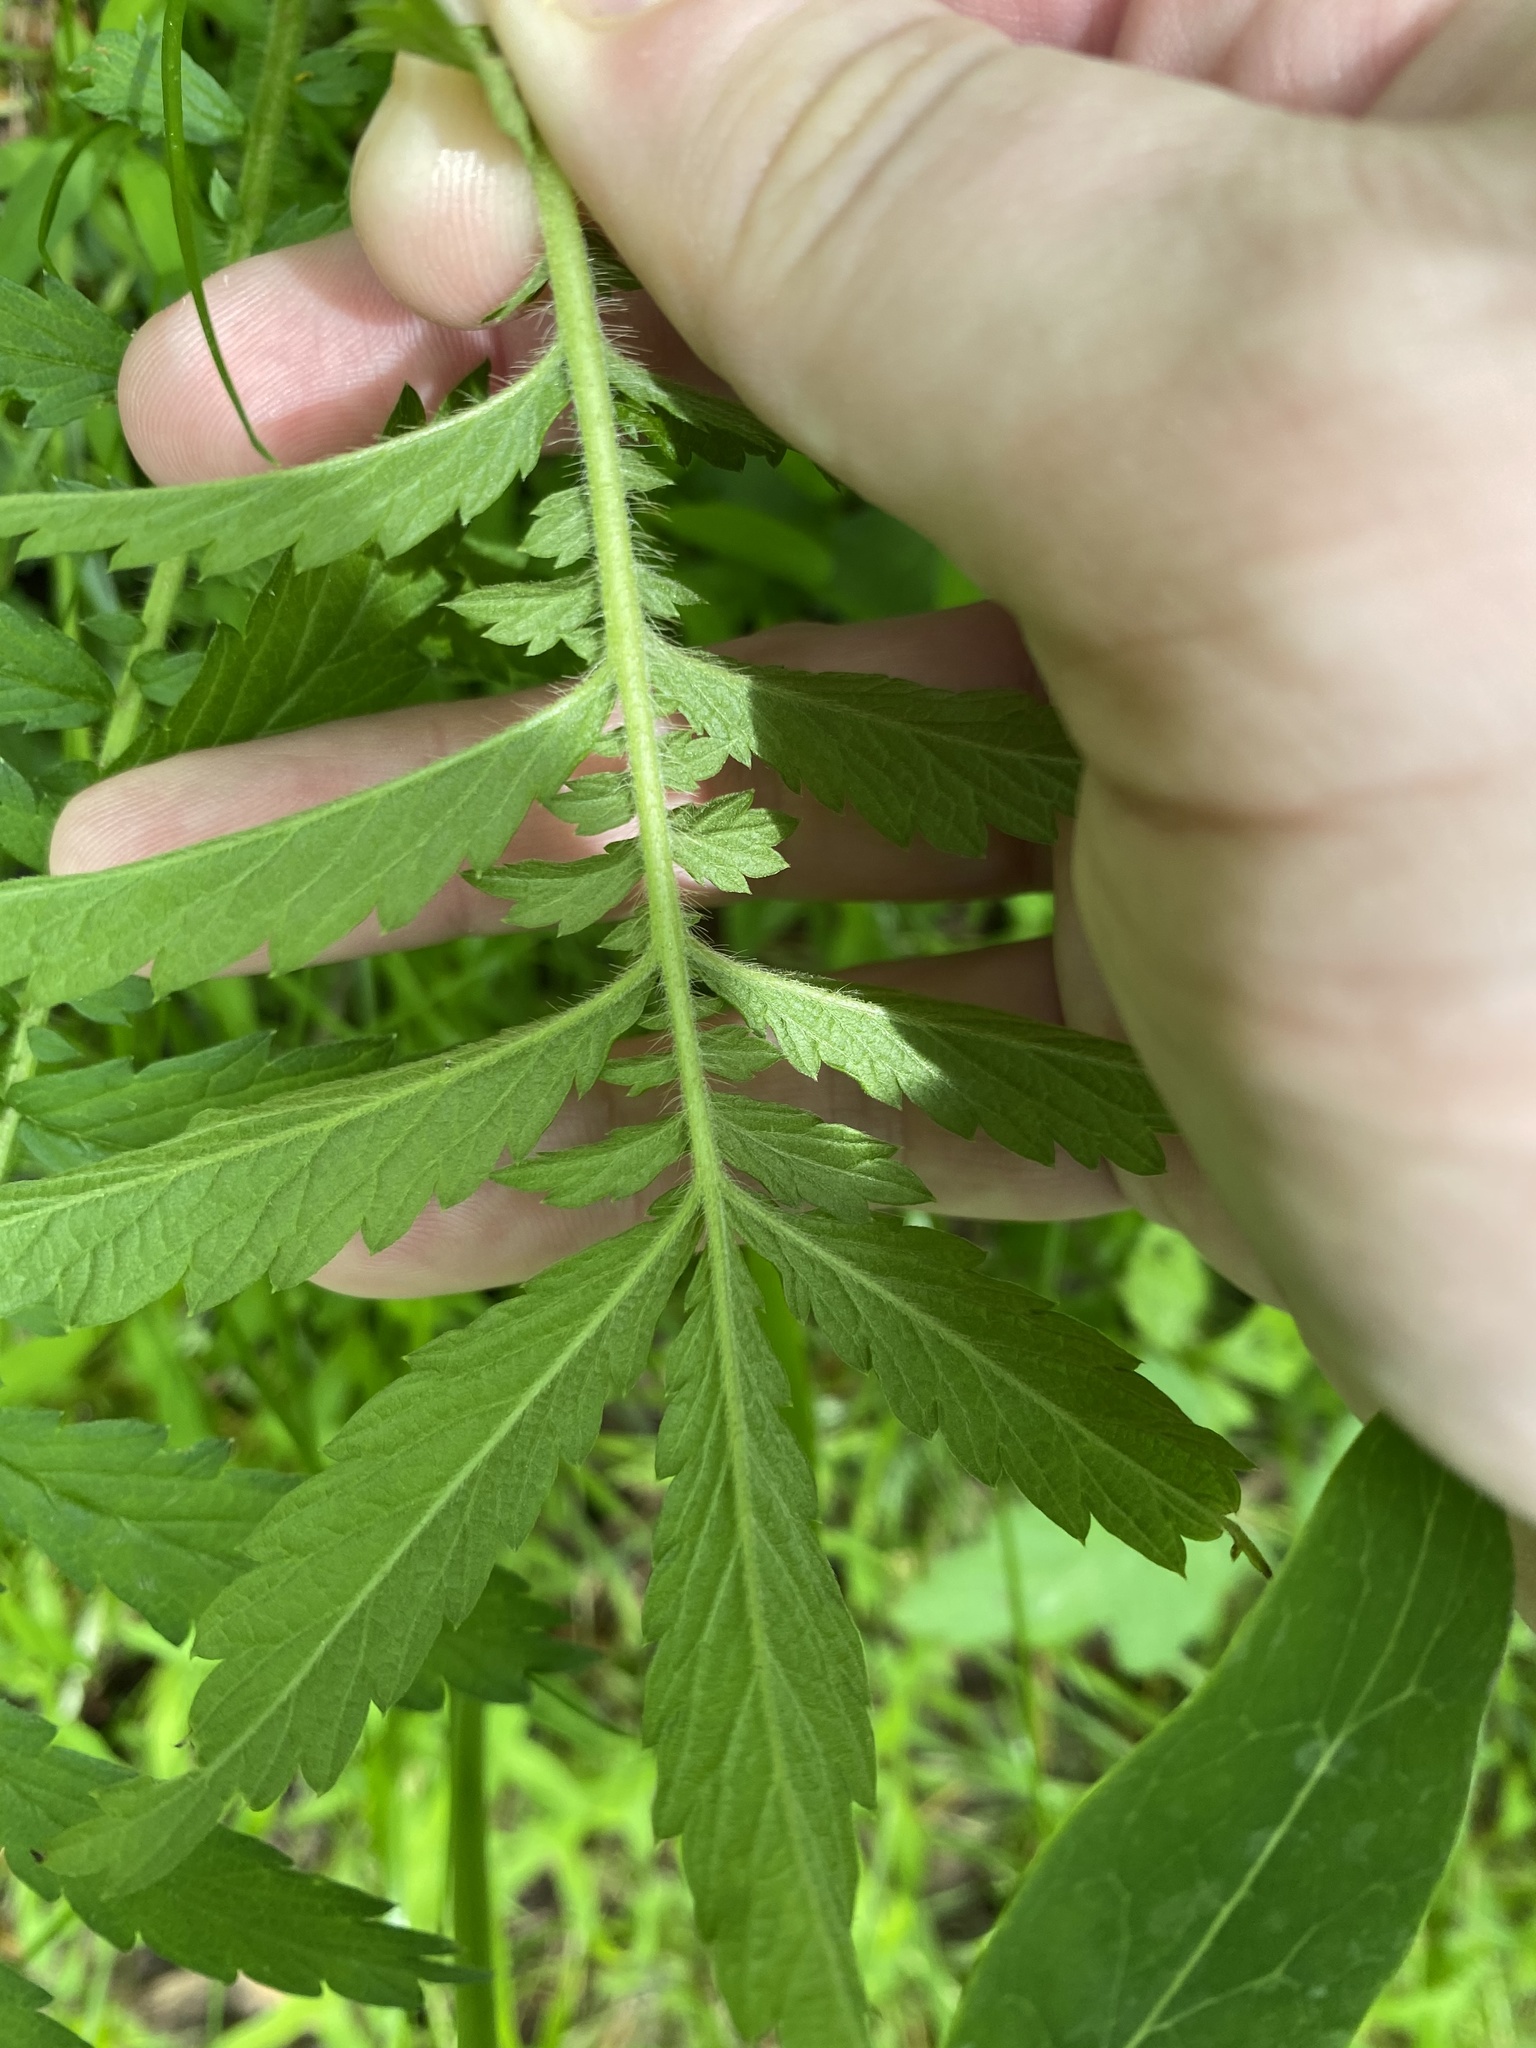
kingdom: Plantae
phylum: Tracheophyta
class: Magnoliopsida
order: Rosales
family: Rosaceae
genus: Agrimonia
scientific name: Agrimonia parviflora
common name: Harvest-lice
